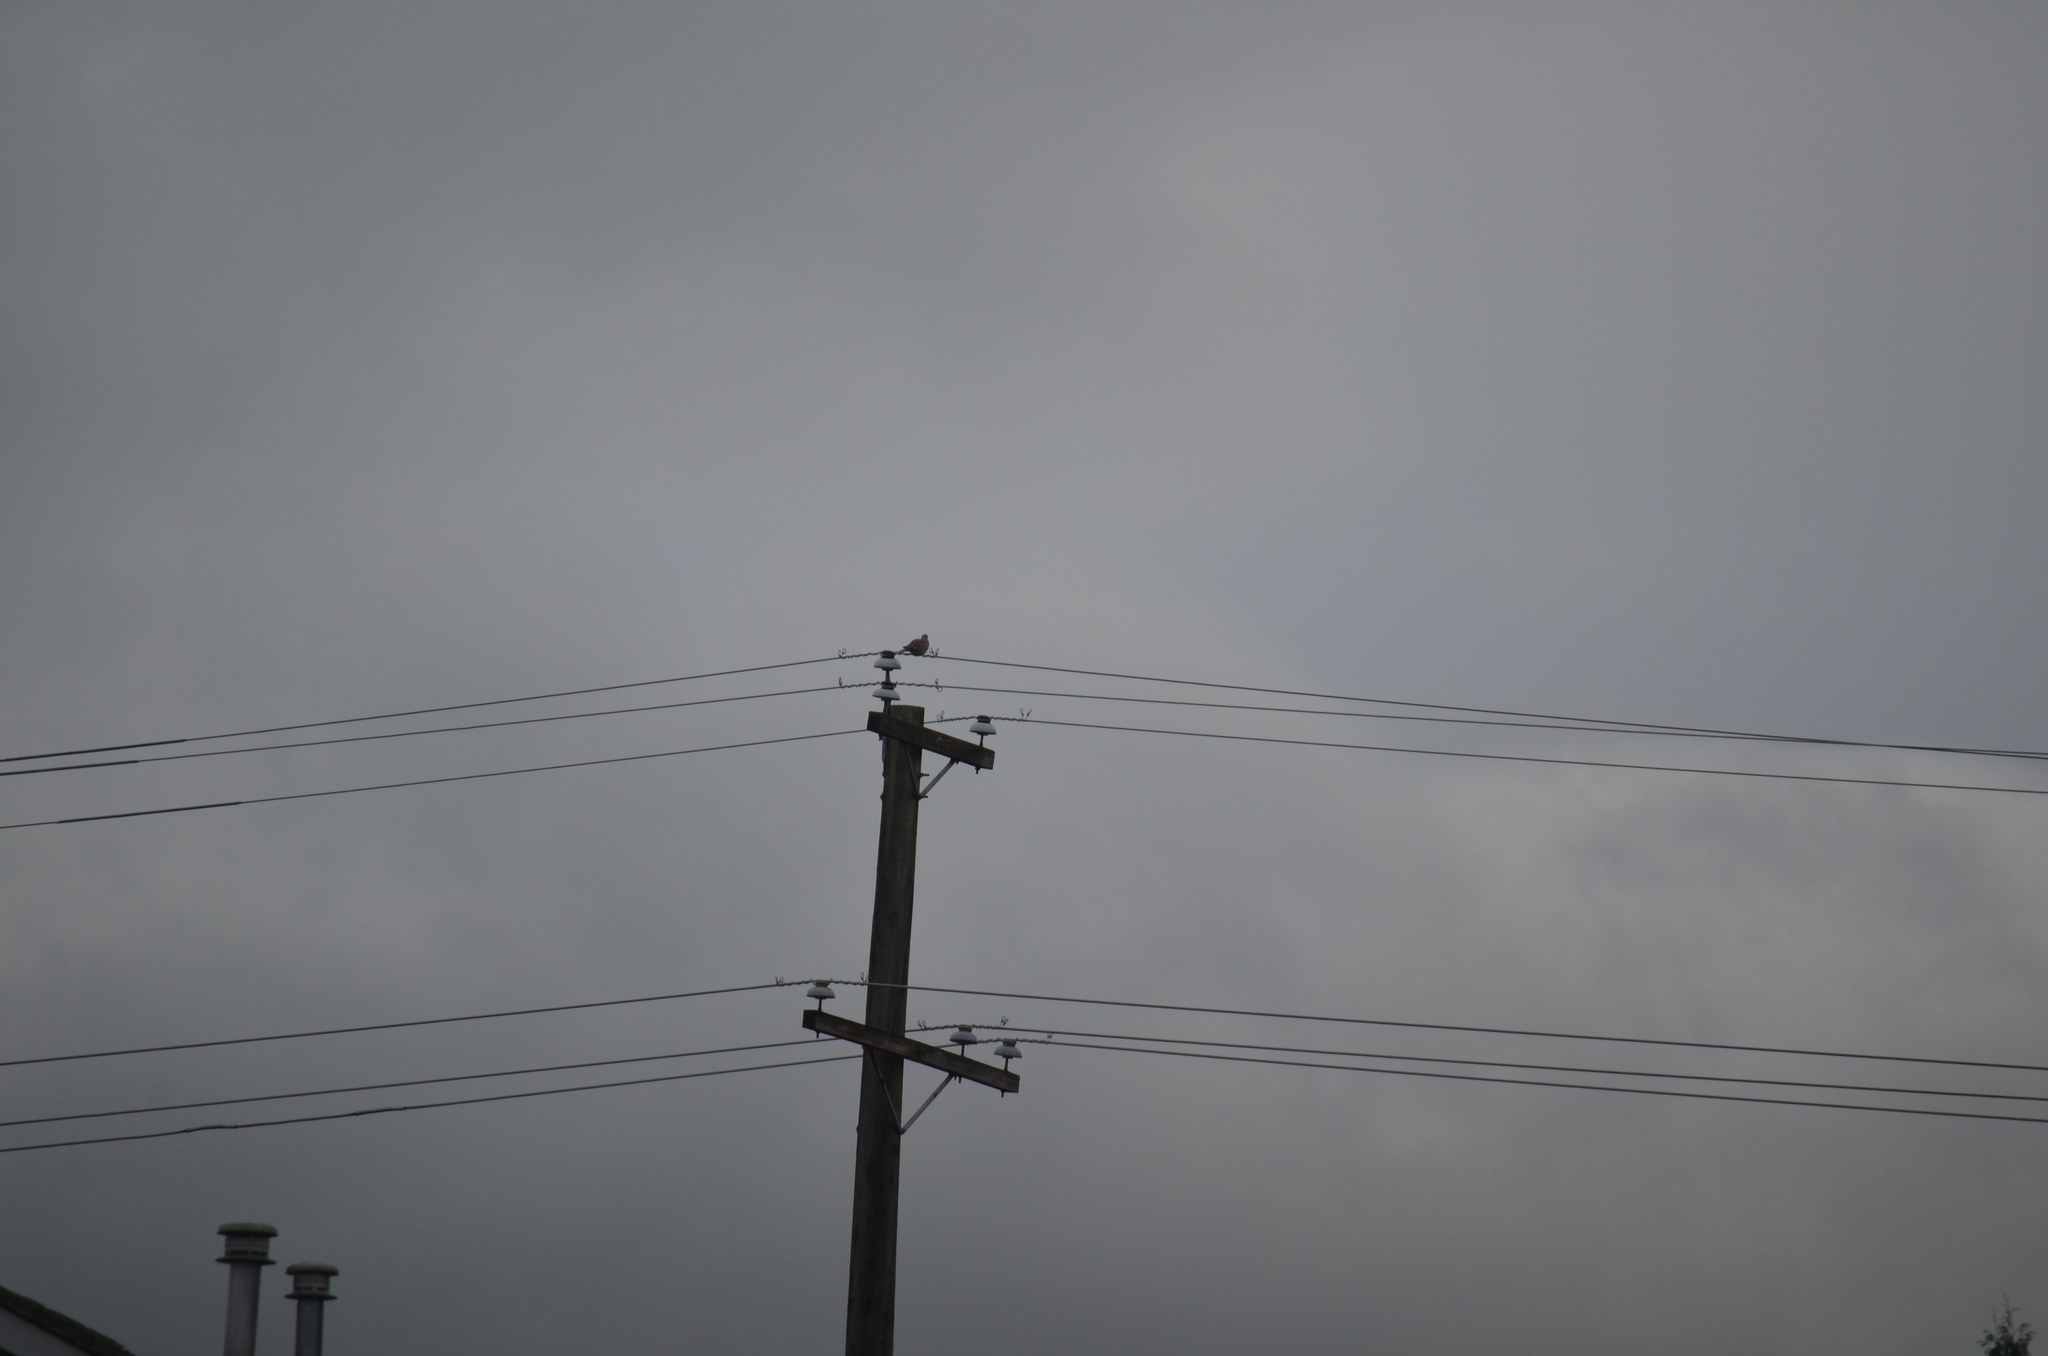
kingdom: Animalia
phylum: Chordata
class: Aves
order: Columbiformes
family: Columbidae
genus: Streptopelia
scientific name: Streptopelia decaocto
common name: Eurasian collared dove
